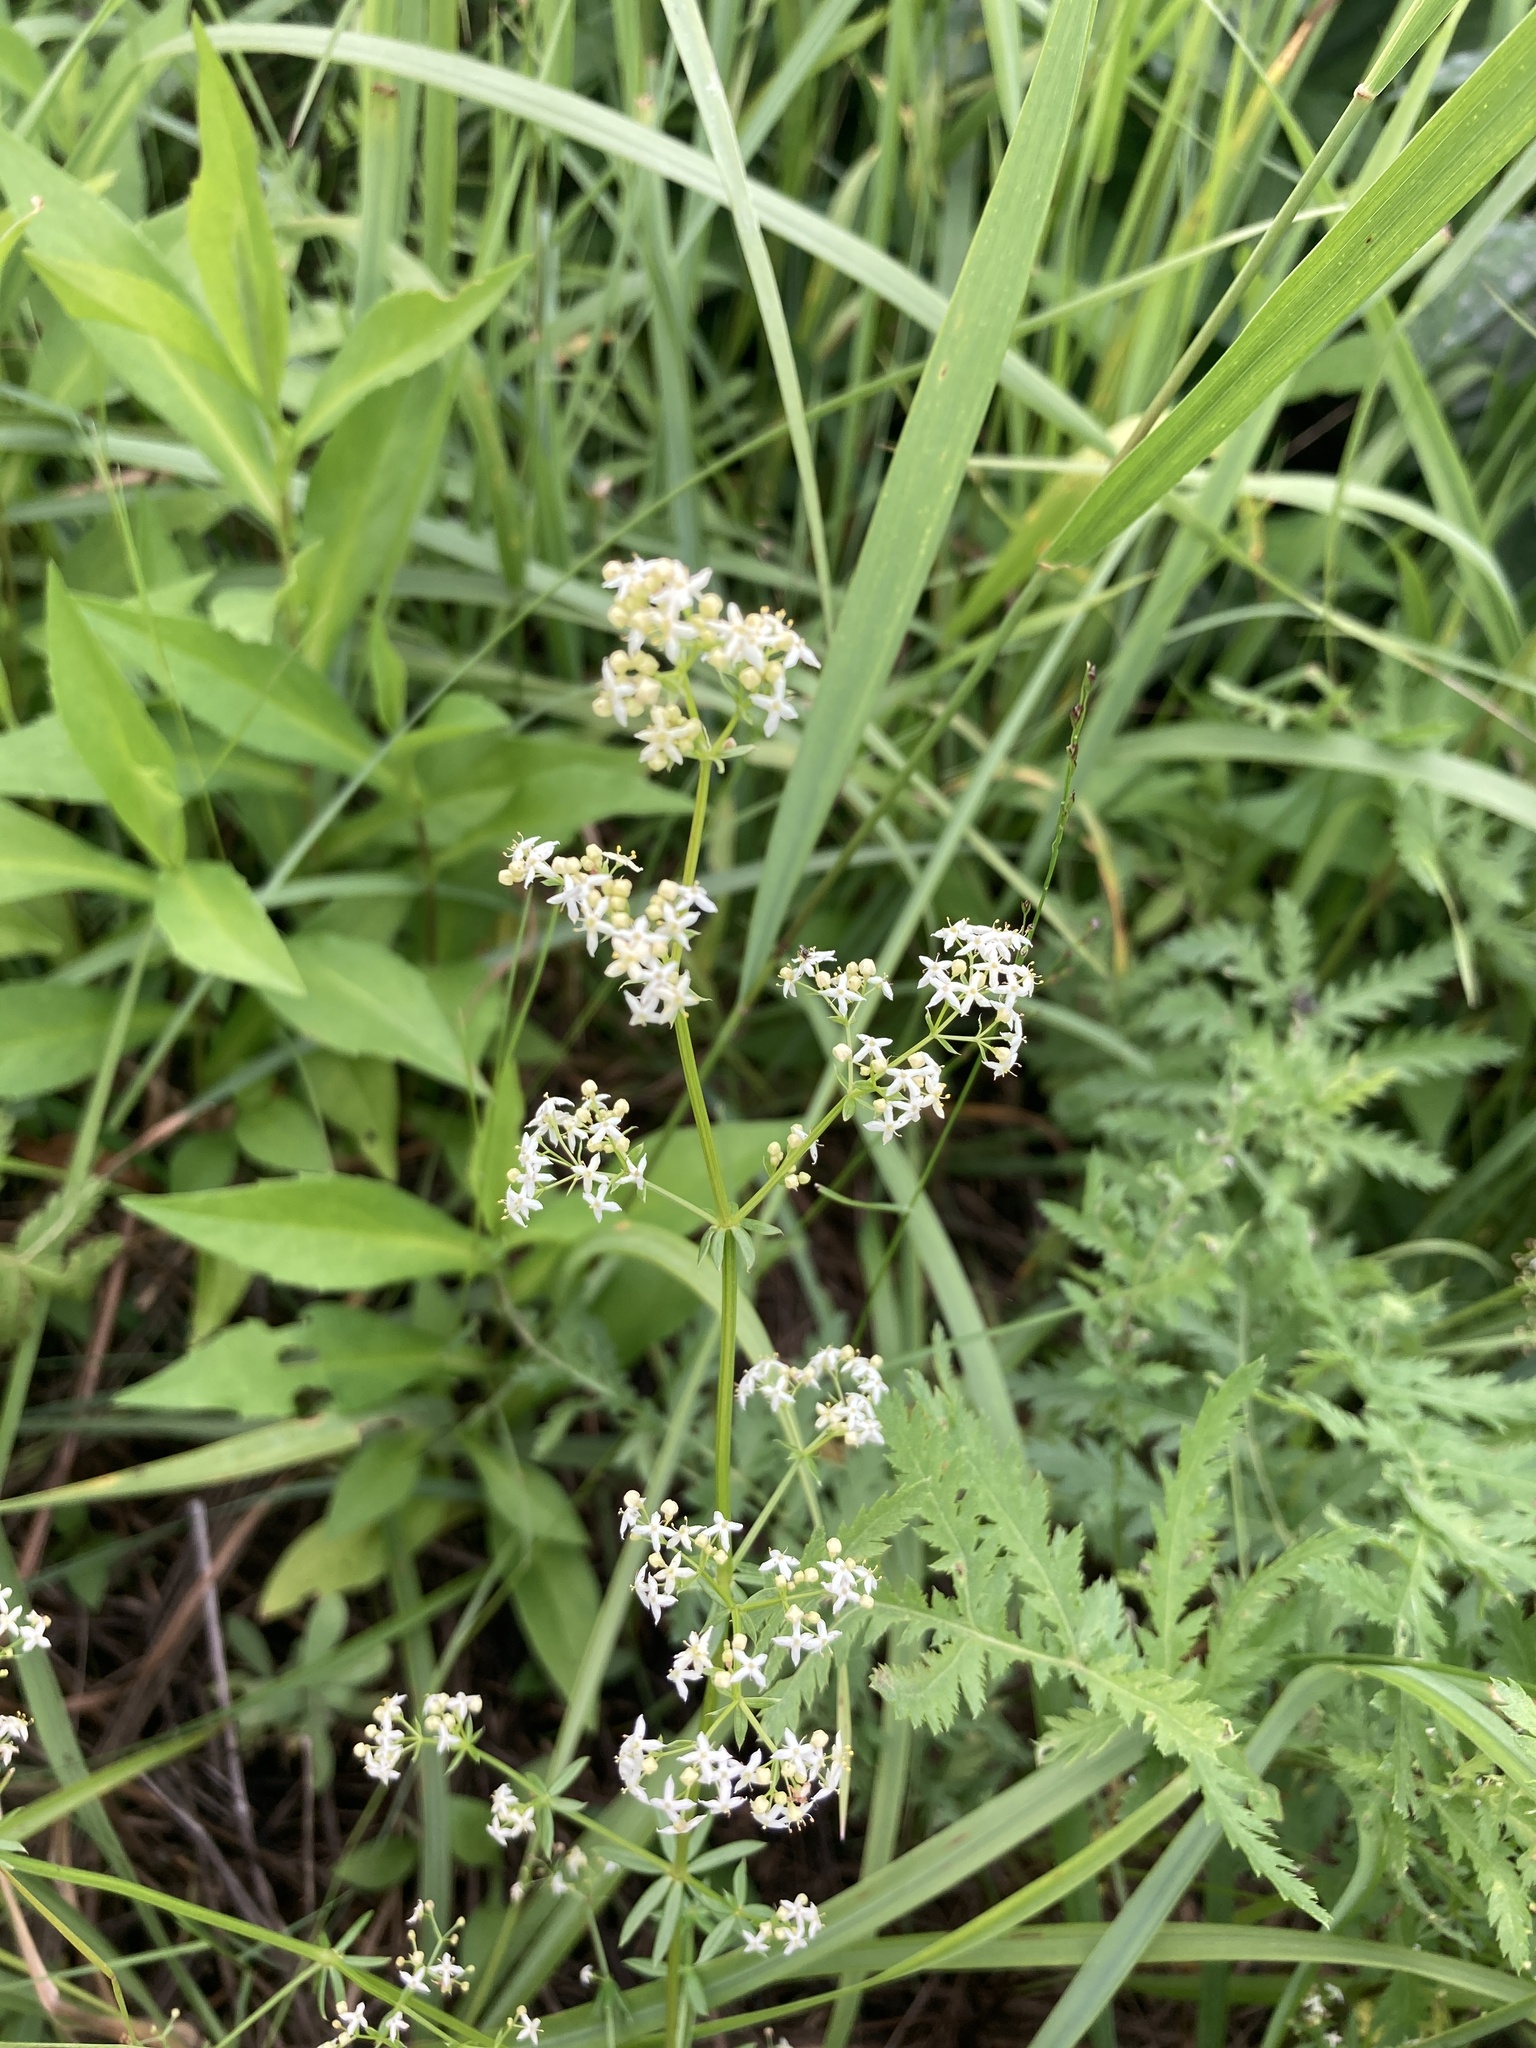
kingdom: Plantae
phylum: Tracheophyta
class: Magnoliopsida
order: Gentianales
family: Rubiaceae
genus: Galium
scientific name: Galium mollugo
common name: Hedge bedstraw
